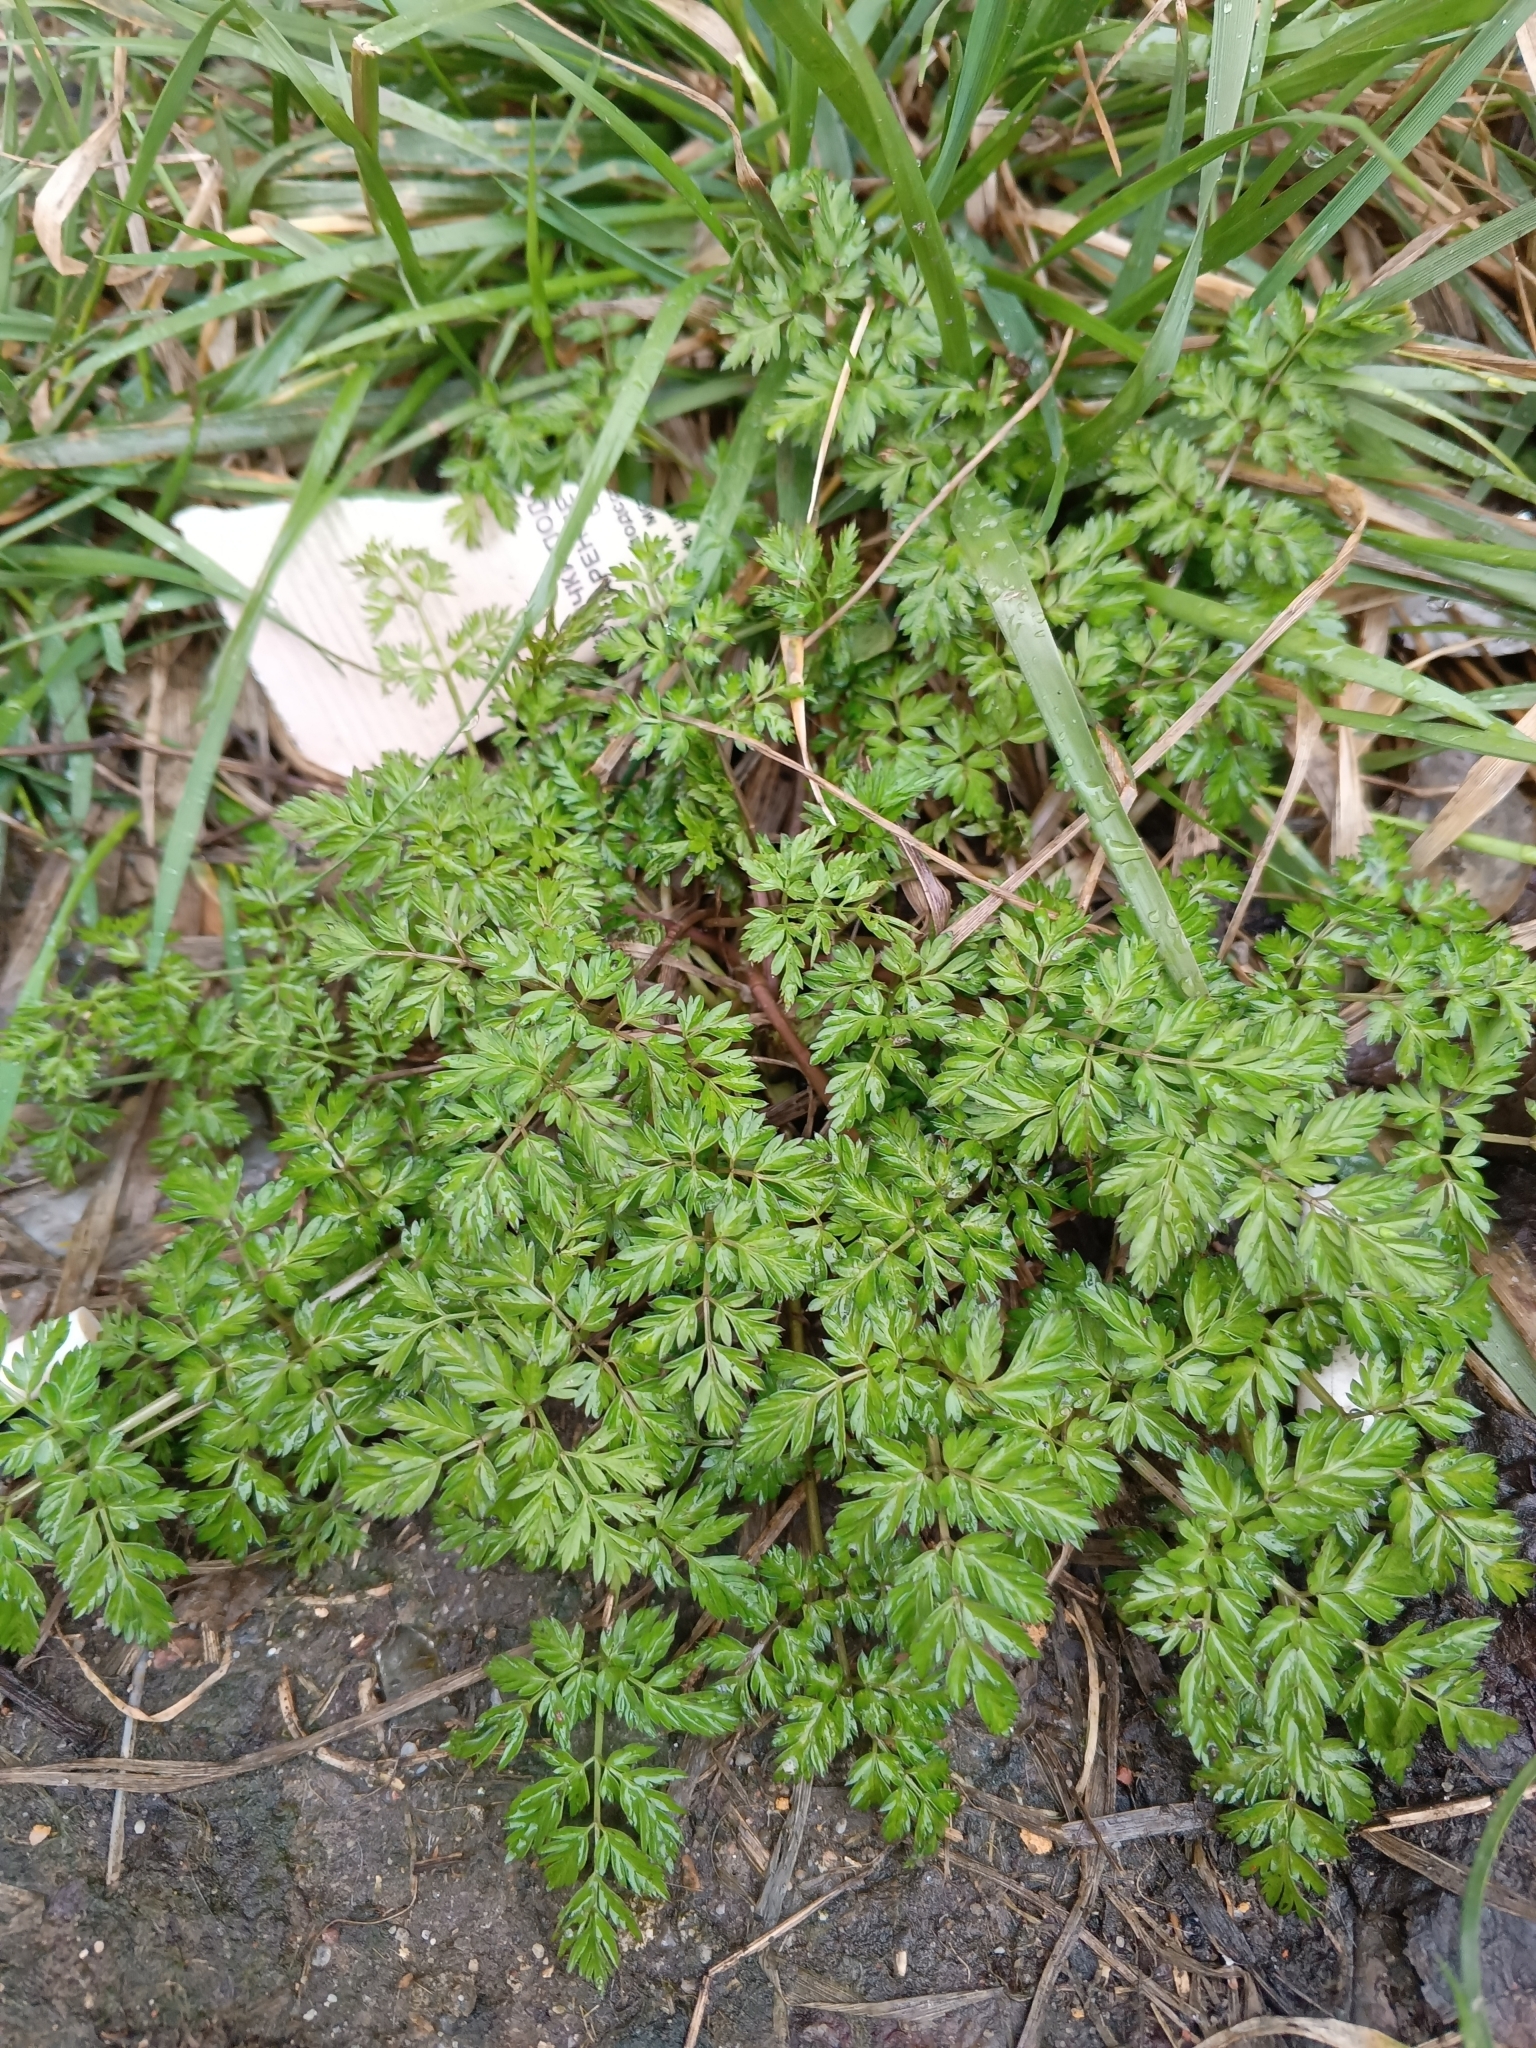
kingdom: Plantae
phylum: Tracheophyta
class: Magnoliopsida
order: Apiales
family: Apiaceae
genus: Anthriscus
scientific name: Anthriscus sylvestris
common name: Cow parsley
